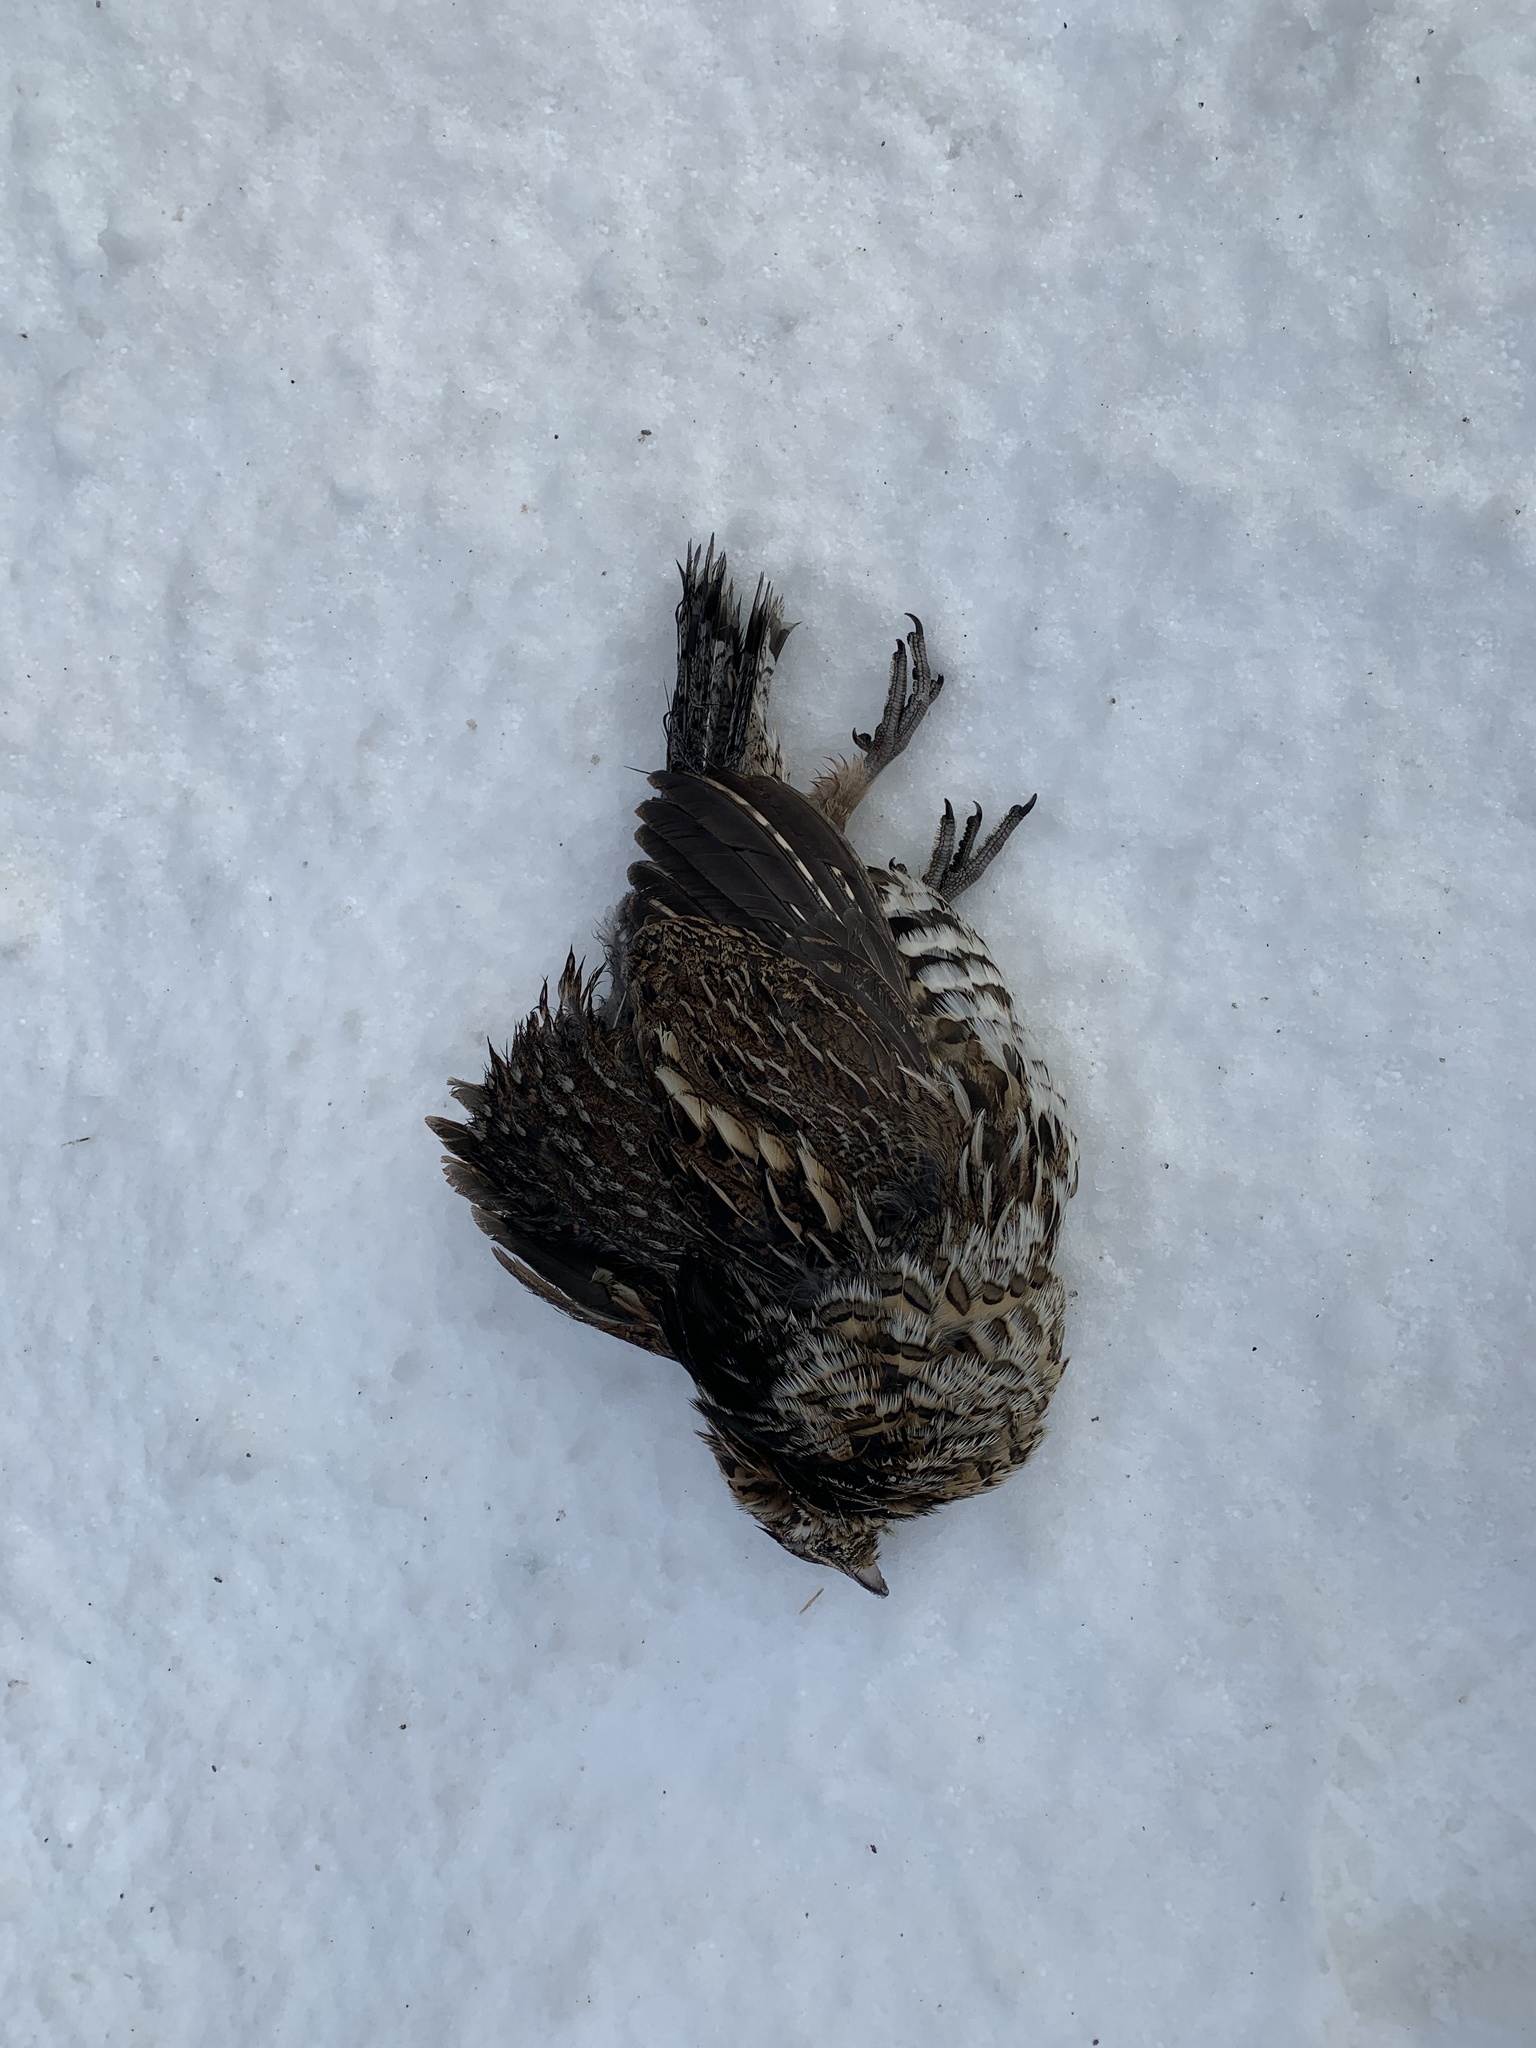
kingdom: Animalia
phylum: Chordata
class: Aves
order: Galliformes
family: Phasianidae
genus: Bonasa
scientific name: Bonasa umbellus
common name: Ruffed grouse
